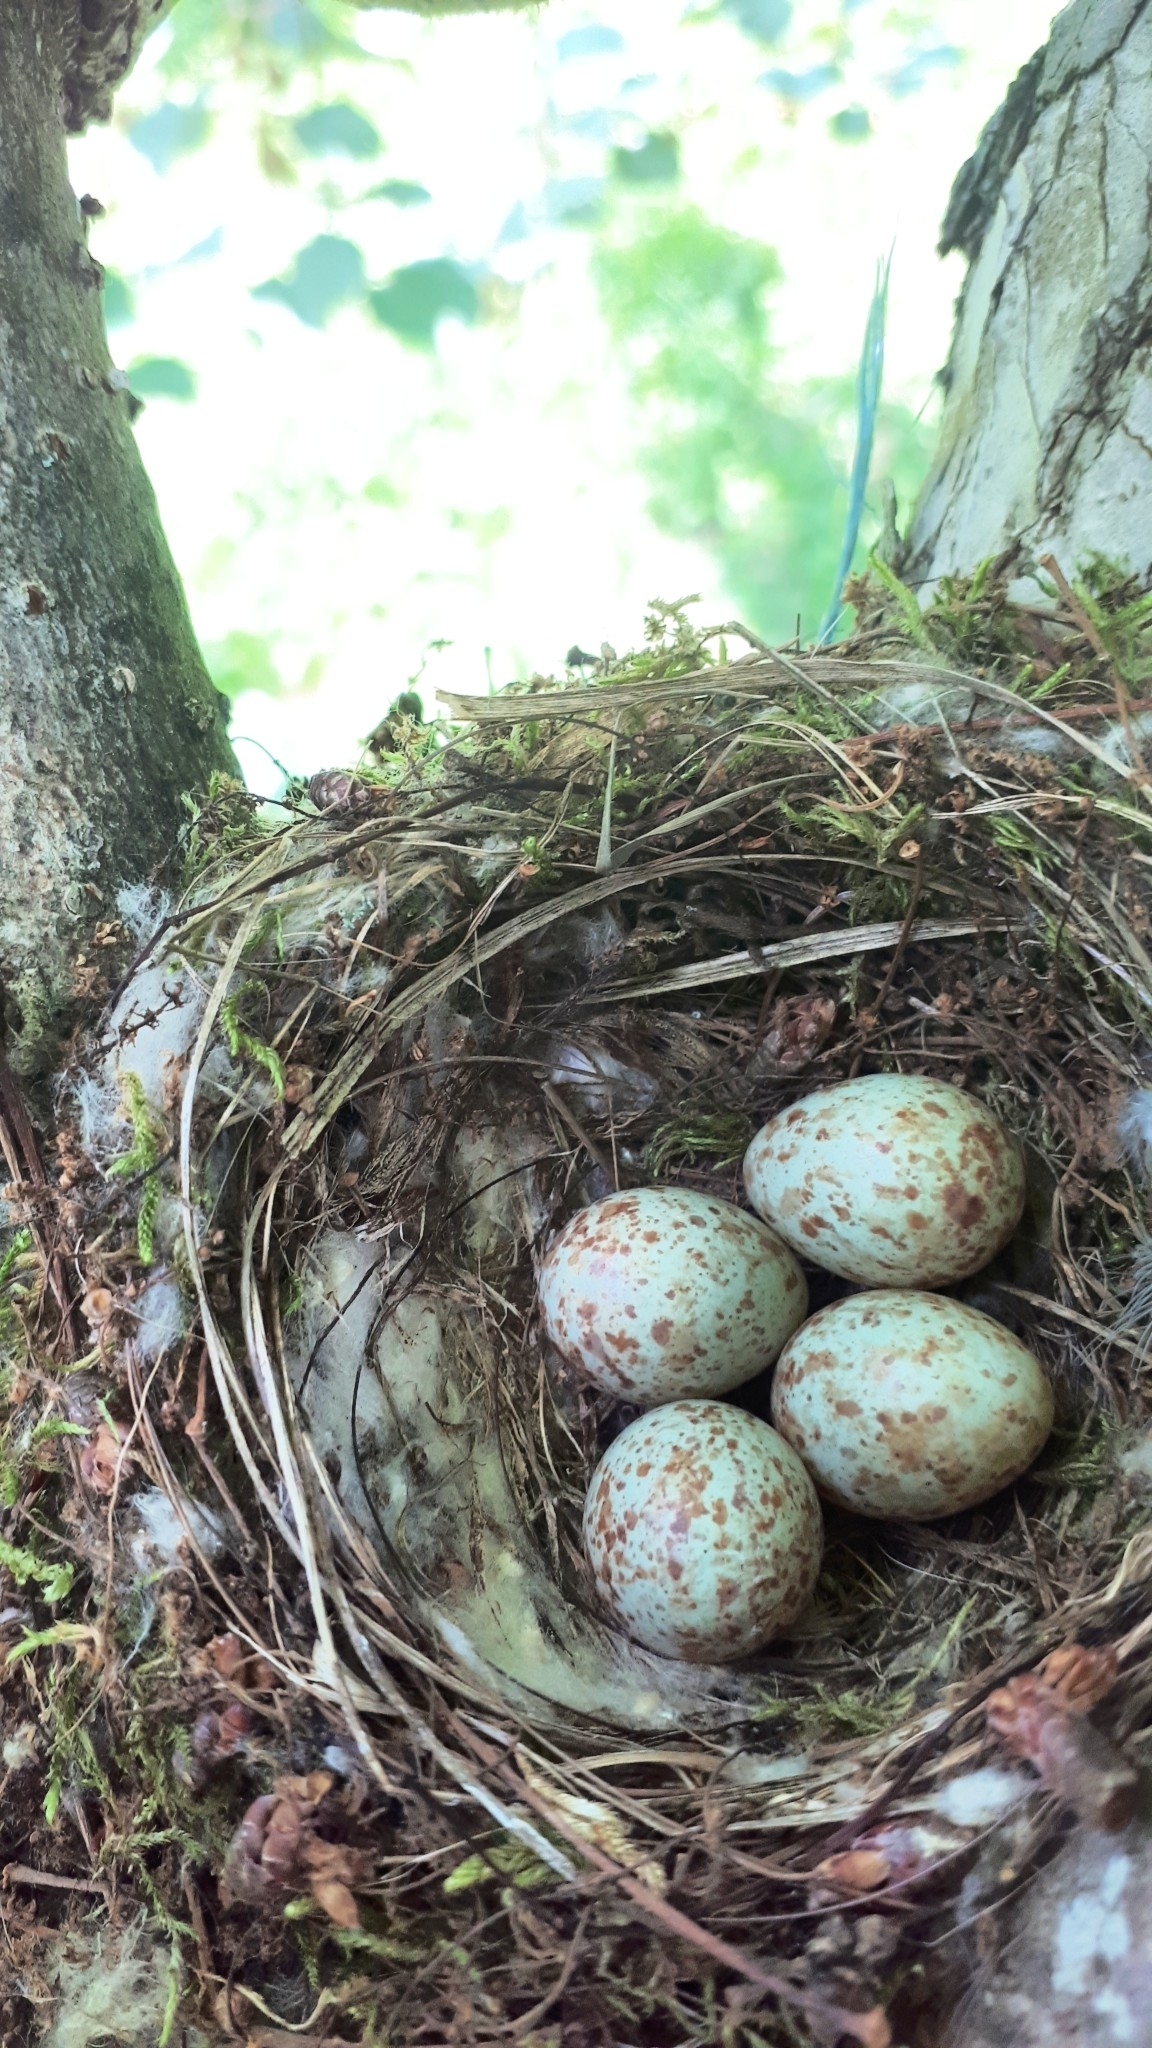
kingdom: Animalia
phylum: Chordata
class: Aves
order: Passeriformes
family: Turdidae
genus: Turdus
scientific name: Turdus merula
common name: Common blackbird
